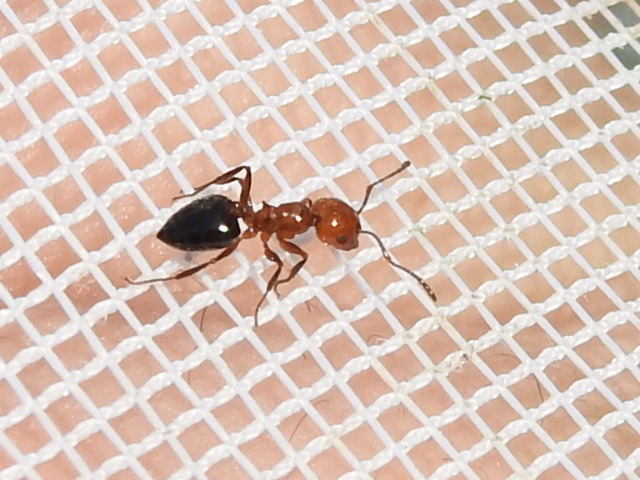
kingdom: Animalia
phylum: Arthropoda
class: Insecta
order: Hymenoptera
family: Formicidae
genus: Crematogaster
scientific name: Crematogaster laeviuscula
